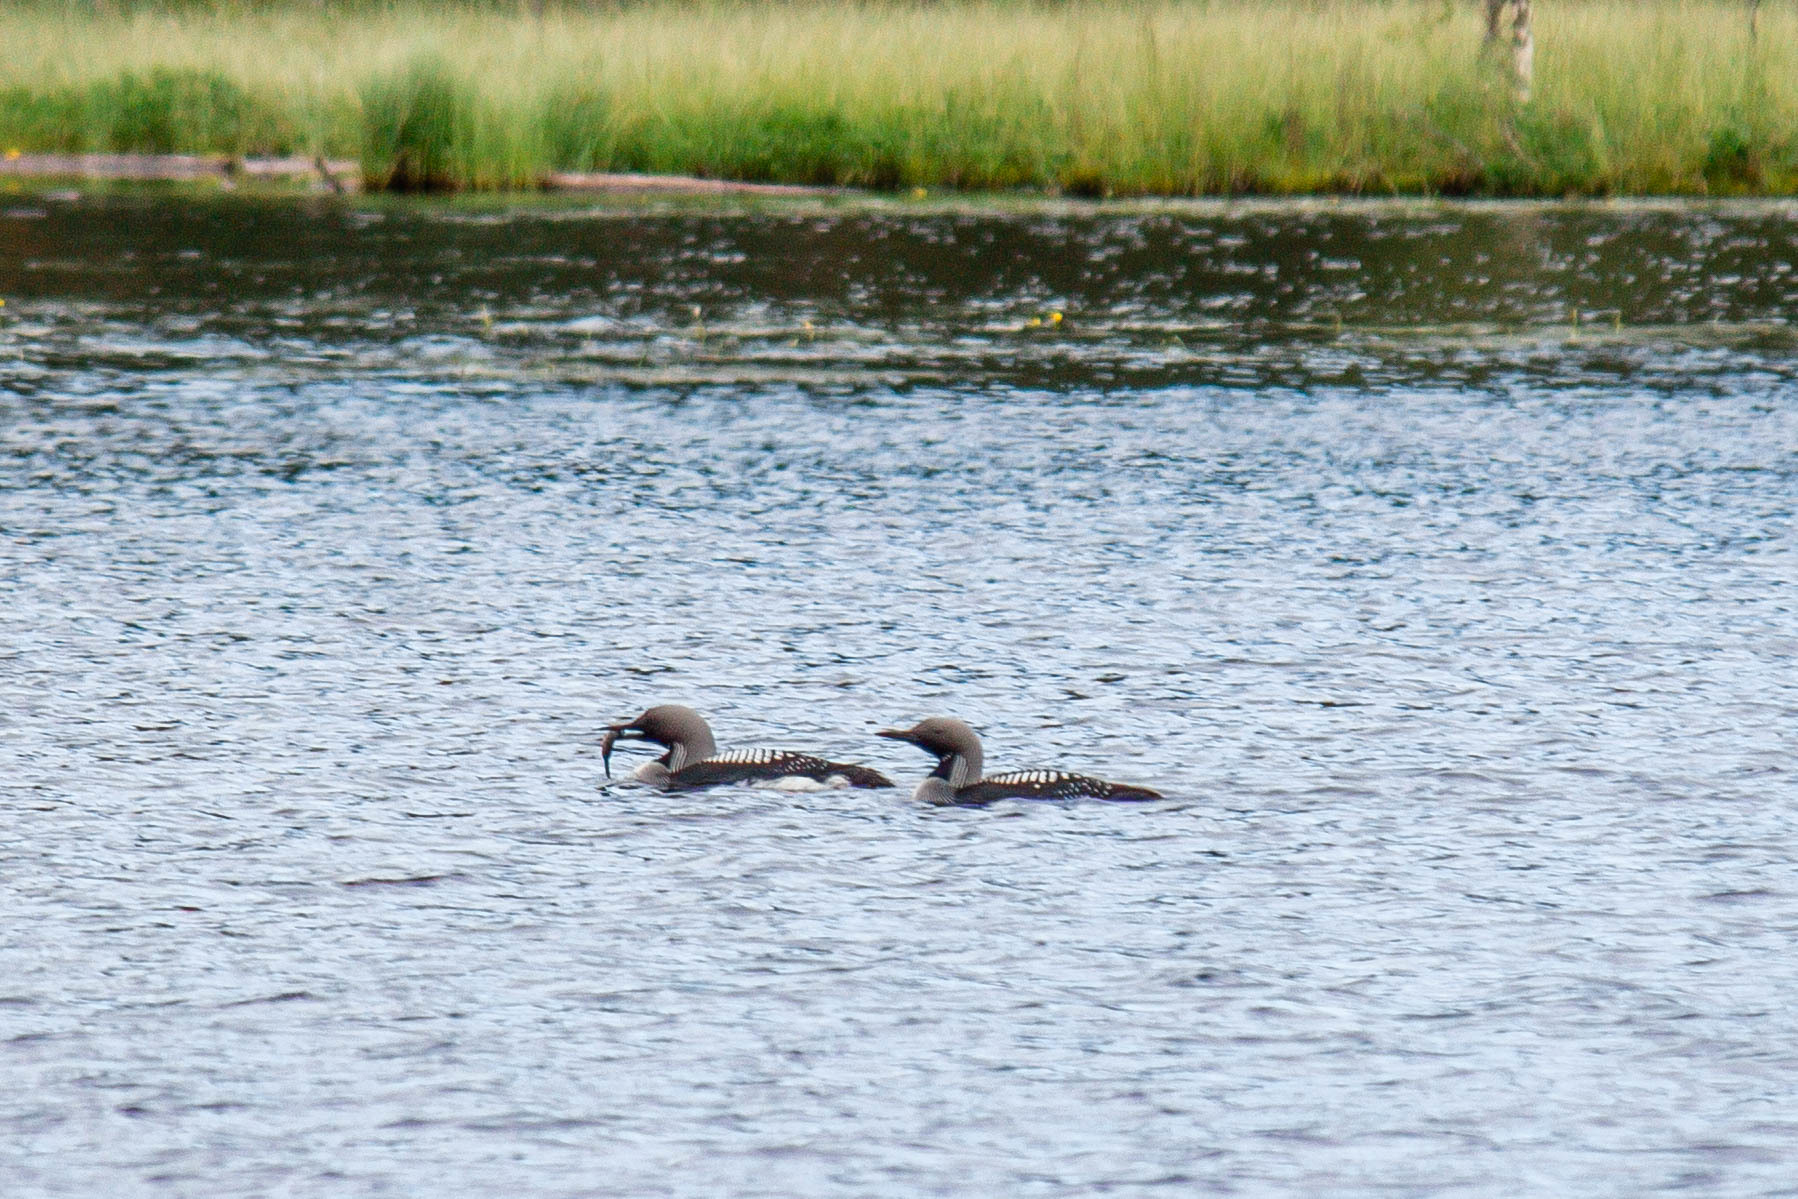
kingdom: Animalia
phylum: Chordata
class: Aves
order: Gaviiformes
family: Gaviidae
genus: Gavia
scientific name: Gavia arctica
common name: Black-throated loon
